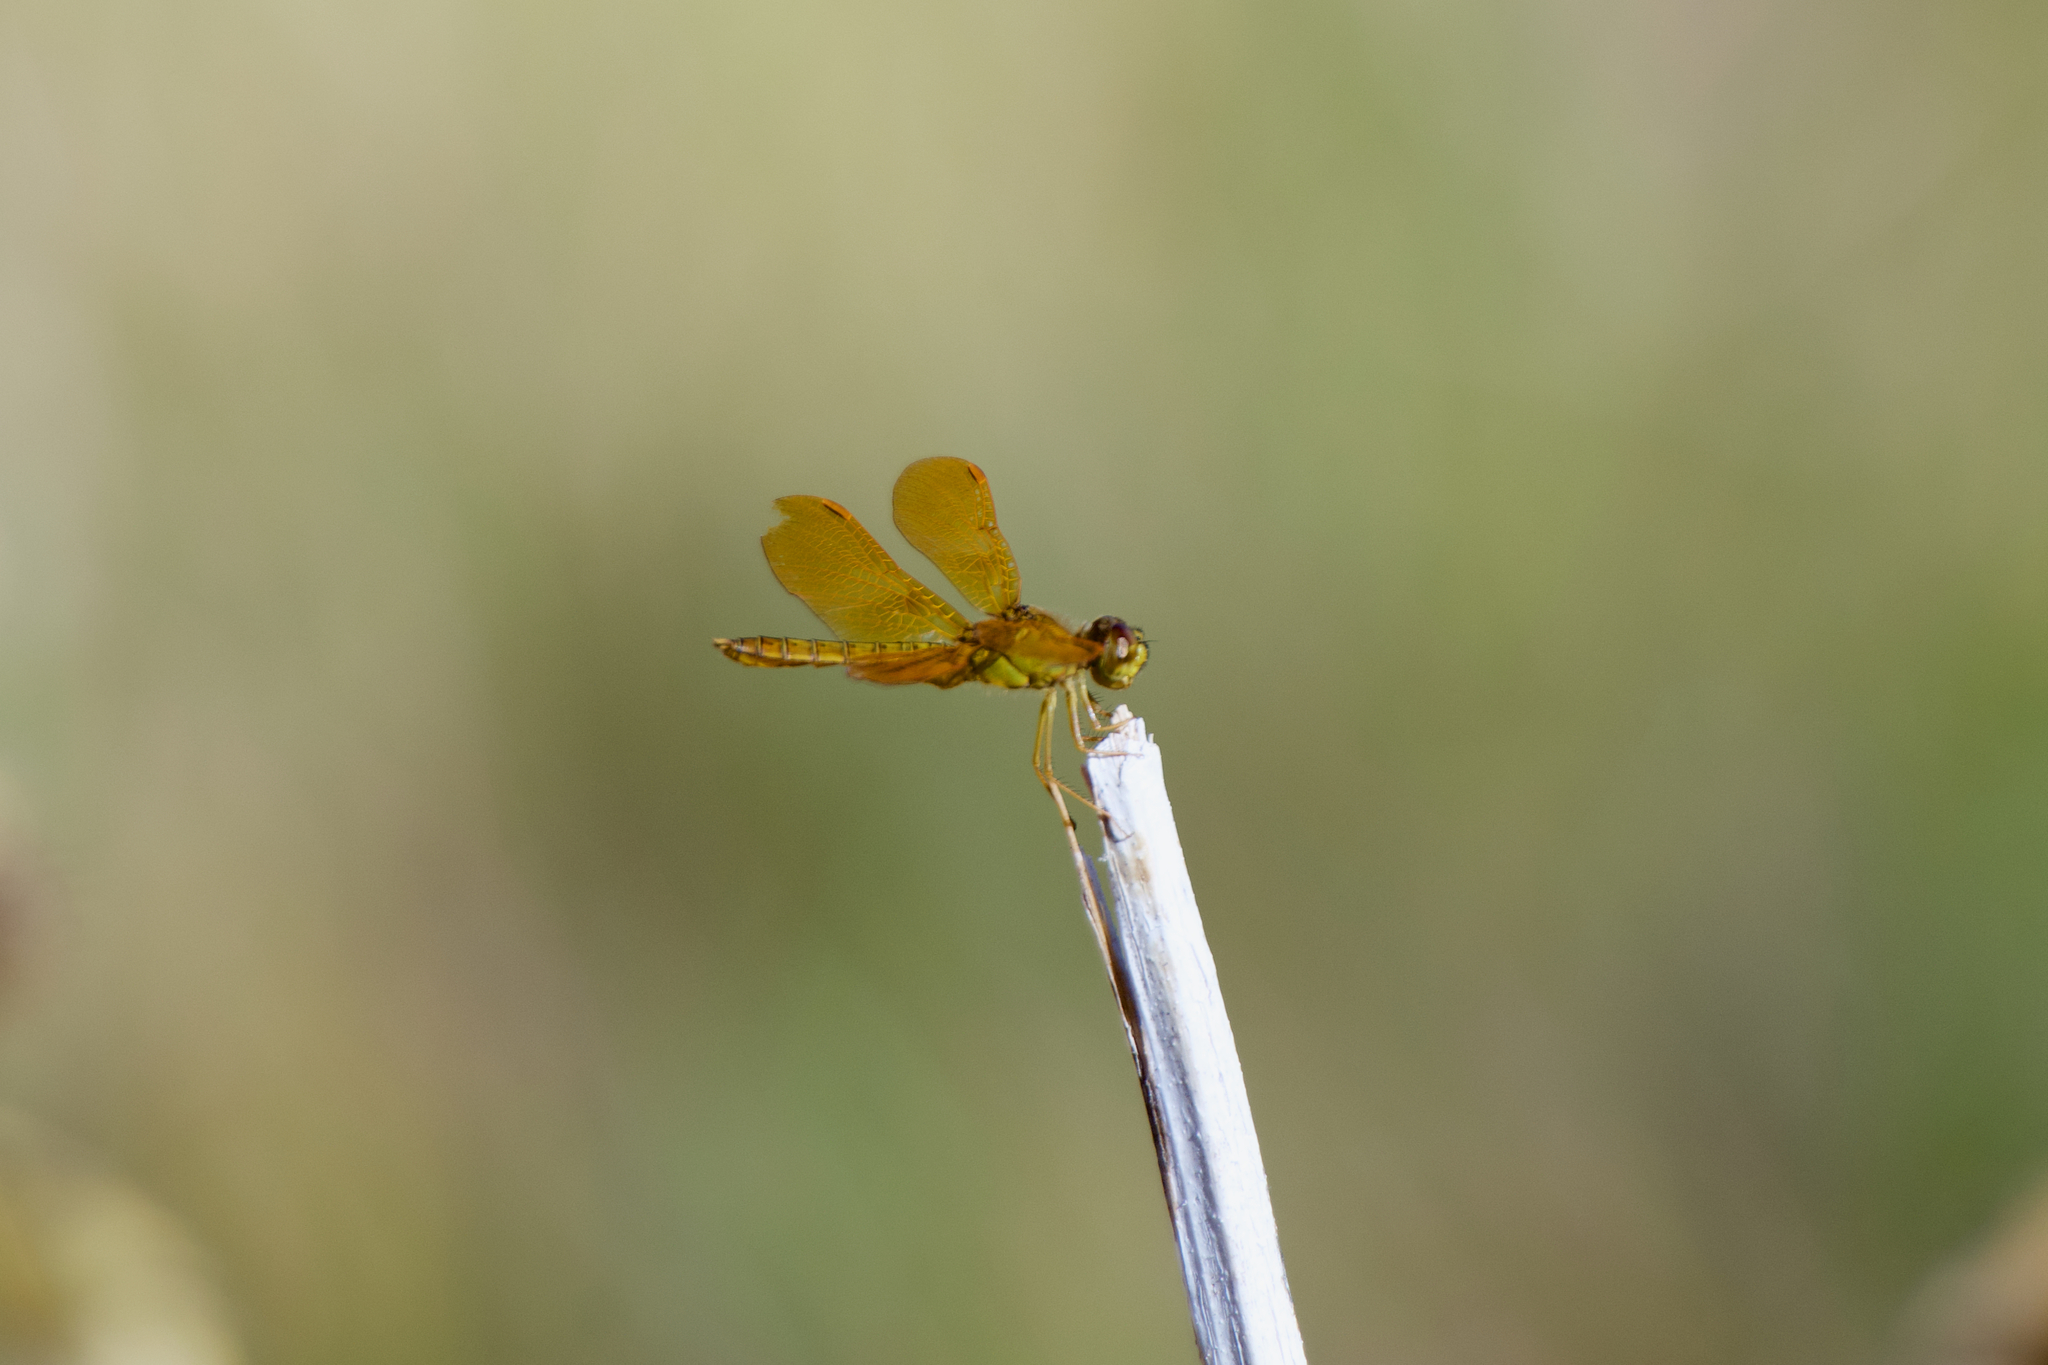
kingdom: Animalia
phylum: Arthropoda
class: Insecta
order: Odonata
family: Libellulidae
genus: Perithemis
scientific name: Perithemis intensa
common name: Mexican amberwing
